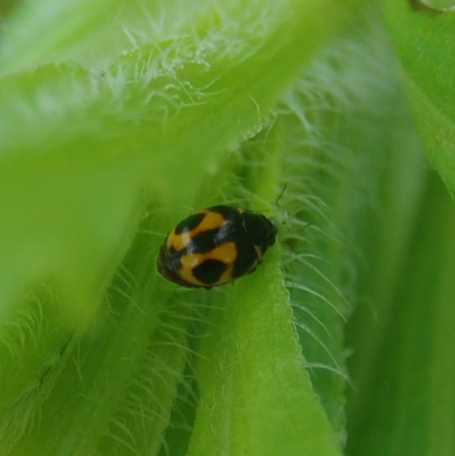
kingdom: Animalia
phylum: Arthropoda
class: Insecta
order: Coleoptera
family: Coccinellidae
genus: Hyperaspis
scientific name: Hyperaspis festiva
